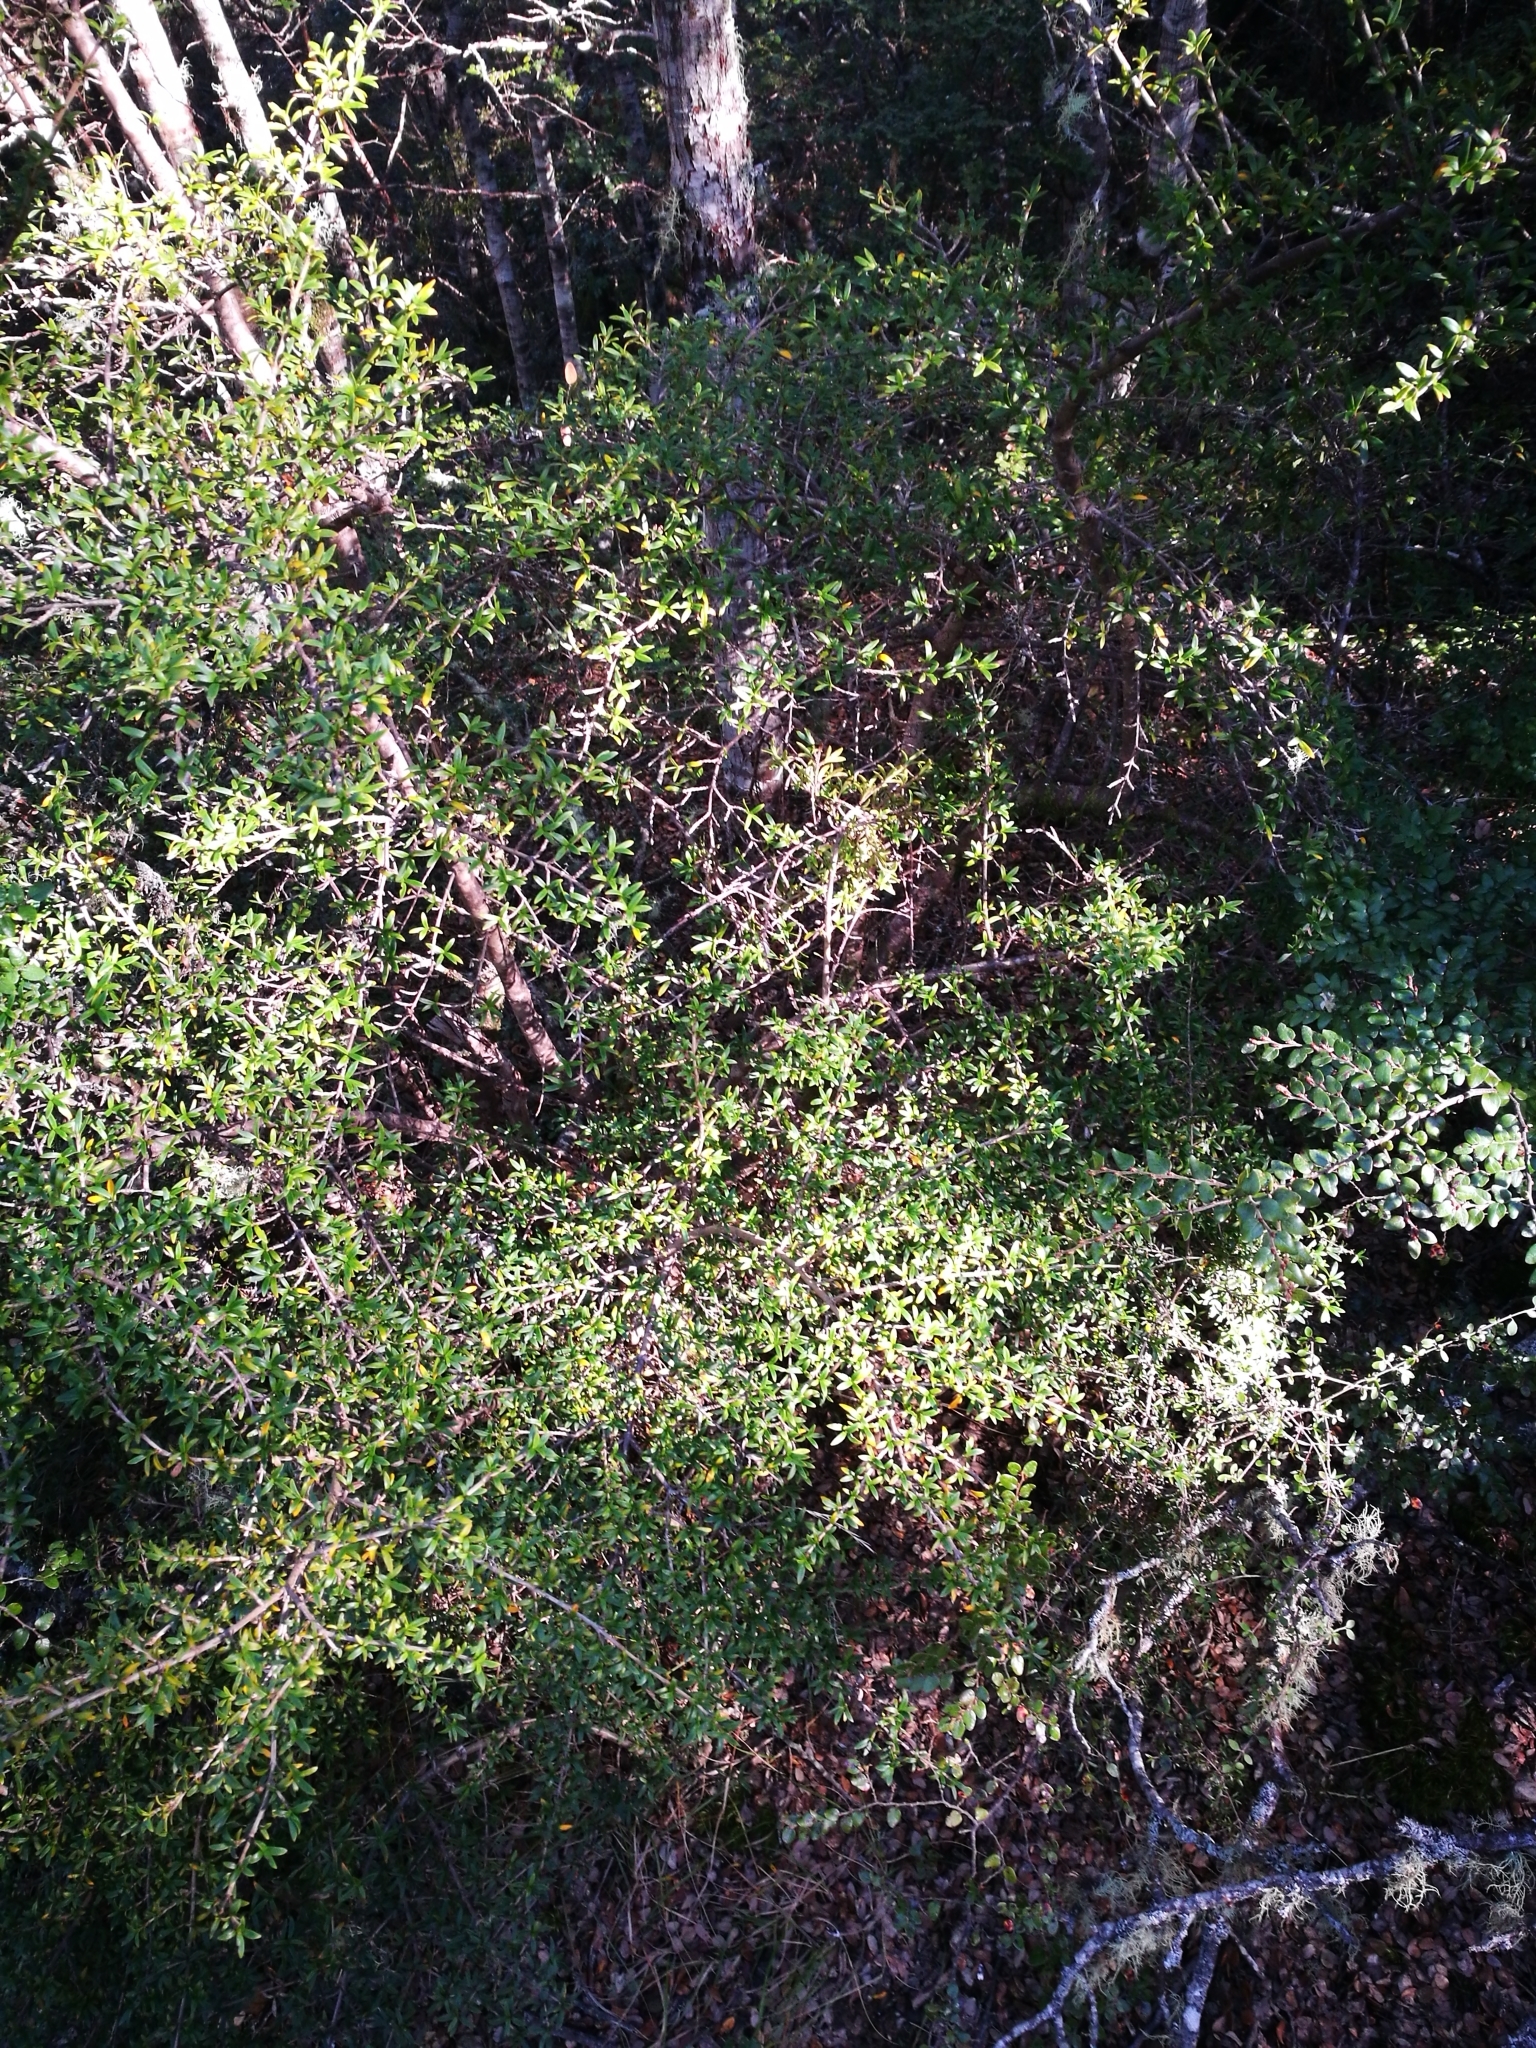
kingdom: Plantae
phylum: Tracheophyta
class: Magnoliopsida
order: Gentianales
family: Rubiaceae
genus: Coprosma
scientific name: Coprosma pseudocuneata
